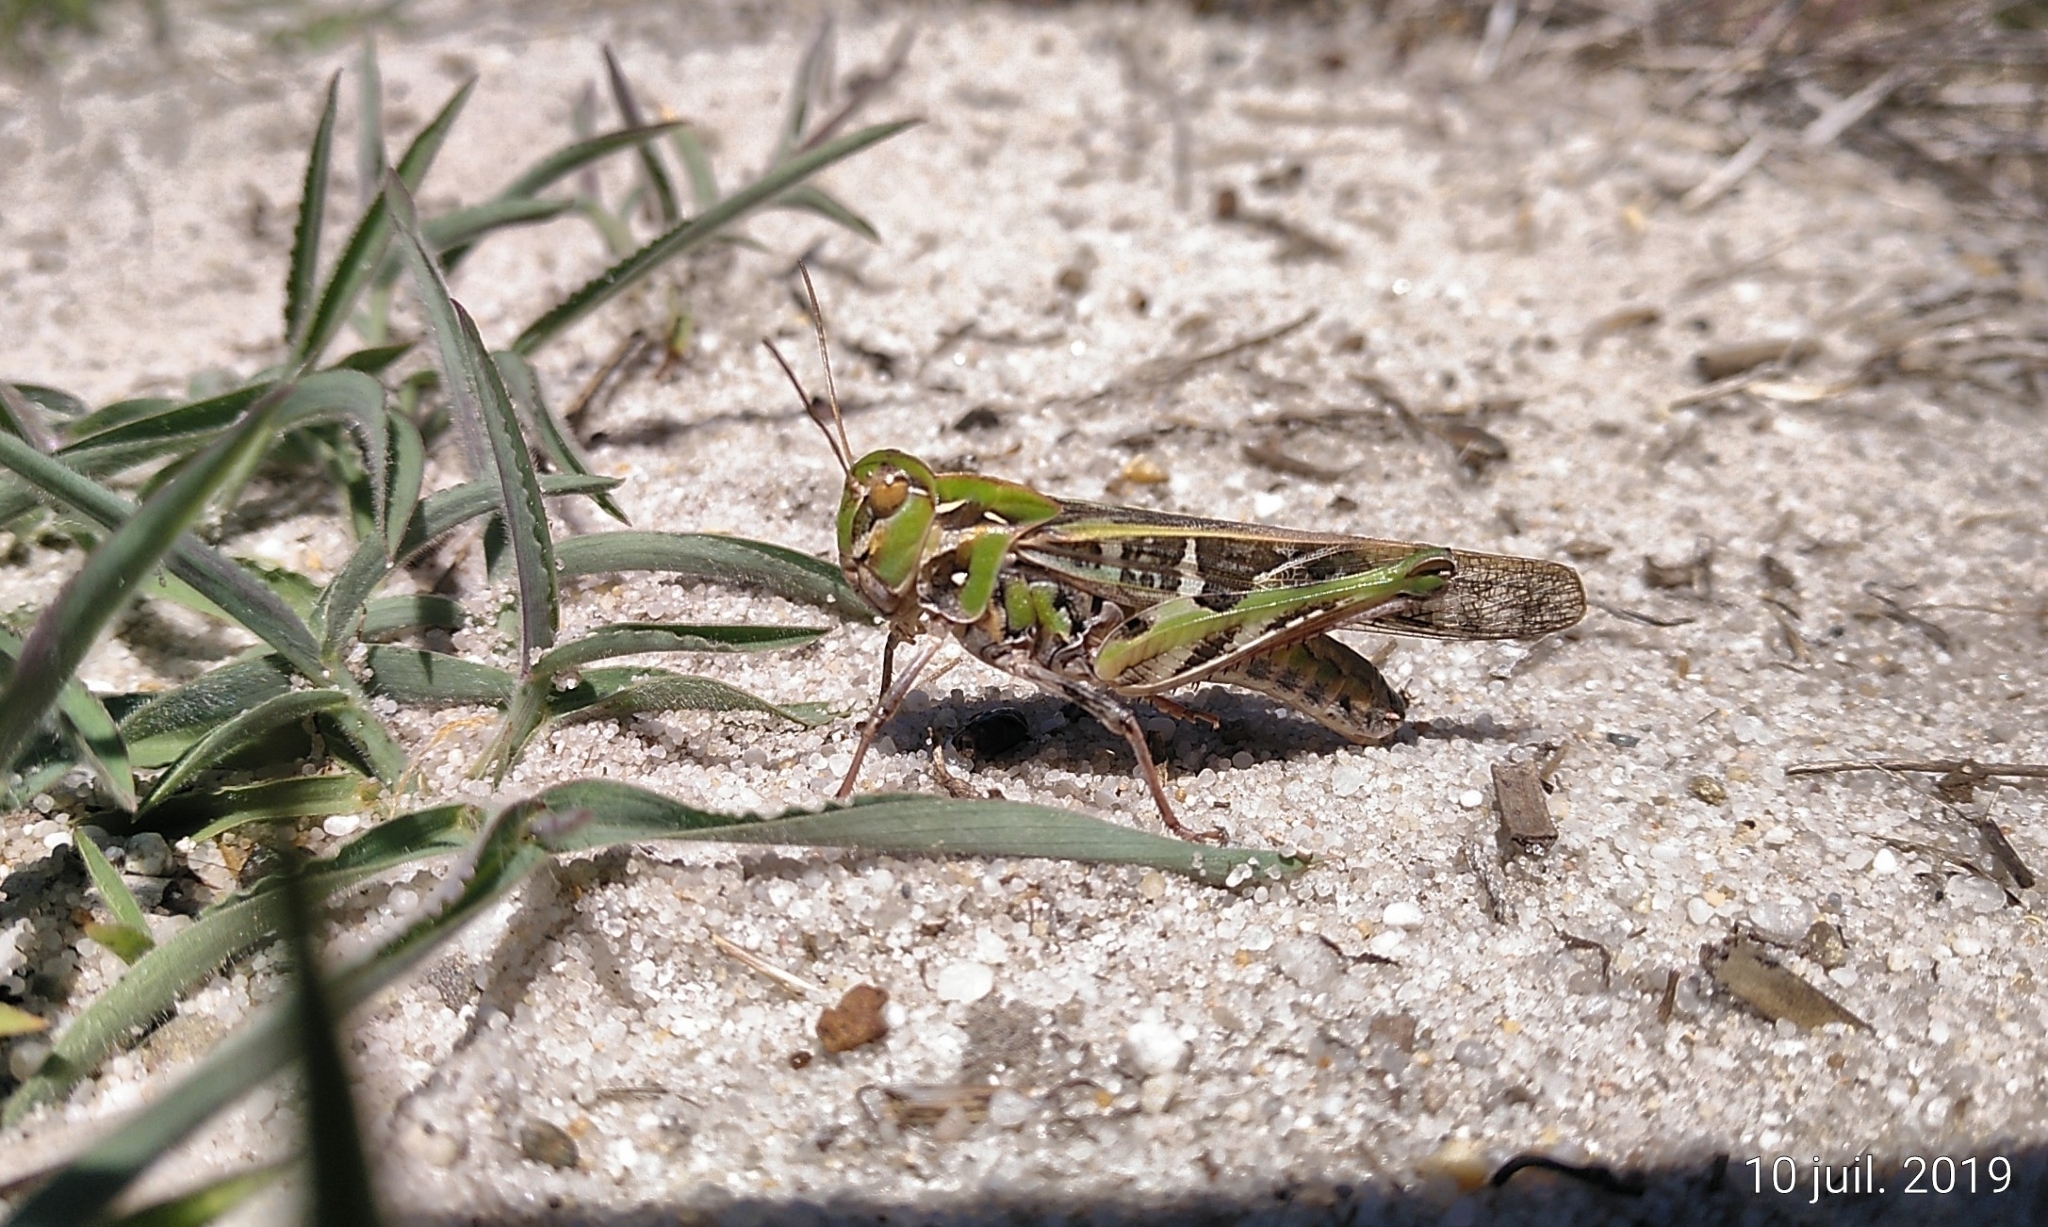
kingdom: Animalia
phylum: Arthropoda
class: Insecta
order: Orthoptera
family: Acrididae
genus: Oedaleus
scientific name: Oedaleus decorus
